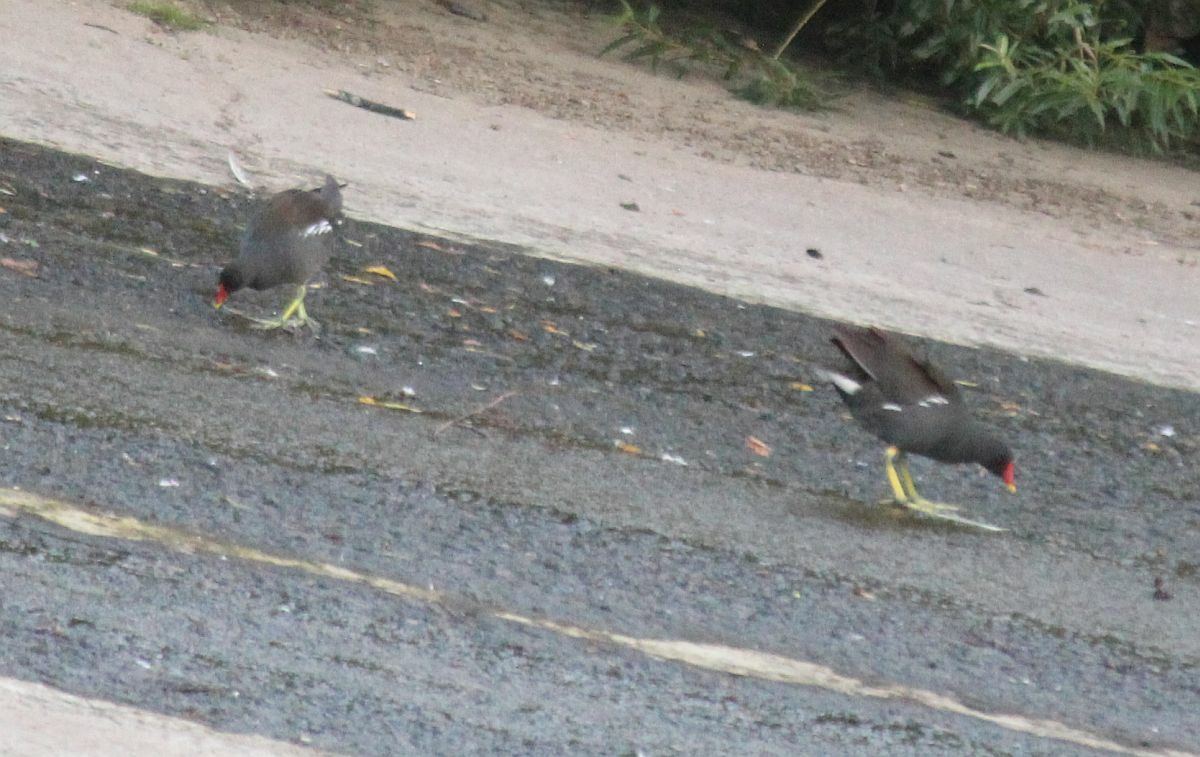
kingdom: Animalia
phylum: Chordata
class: Aves
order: Gruiformes
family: Rallidae
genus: Gallinula
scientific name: Gallinula chloropus
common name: Common moorhen
